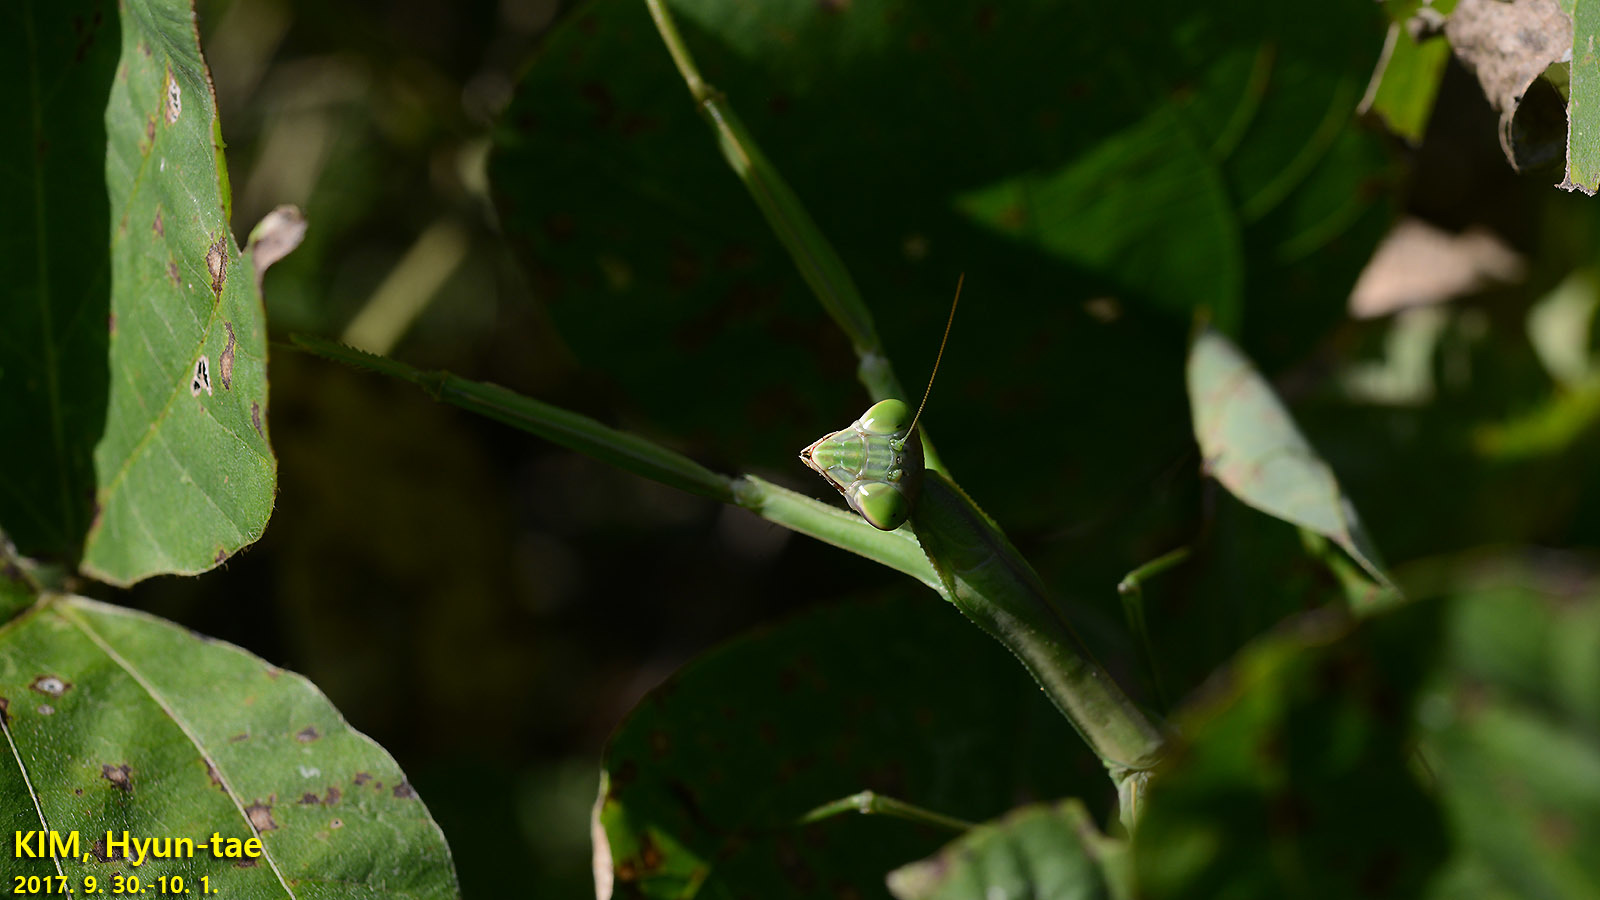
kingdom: Animalia
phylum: Arthropoda
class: Insecta
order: Mantodea
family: Mantidae
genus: Tenodera
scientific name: Tenodera sinensis
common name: Chinese mantis
